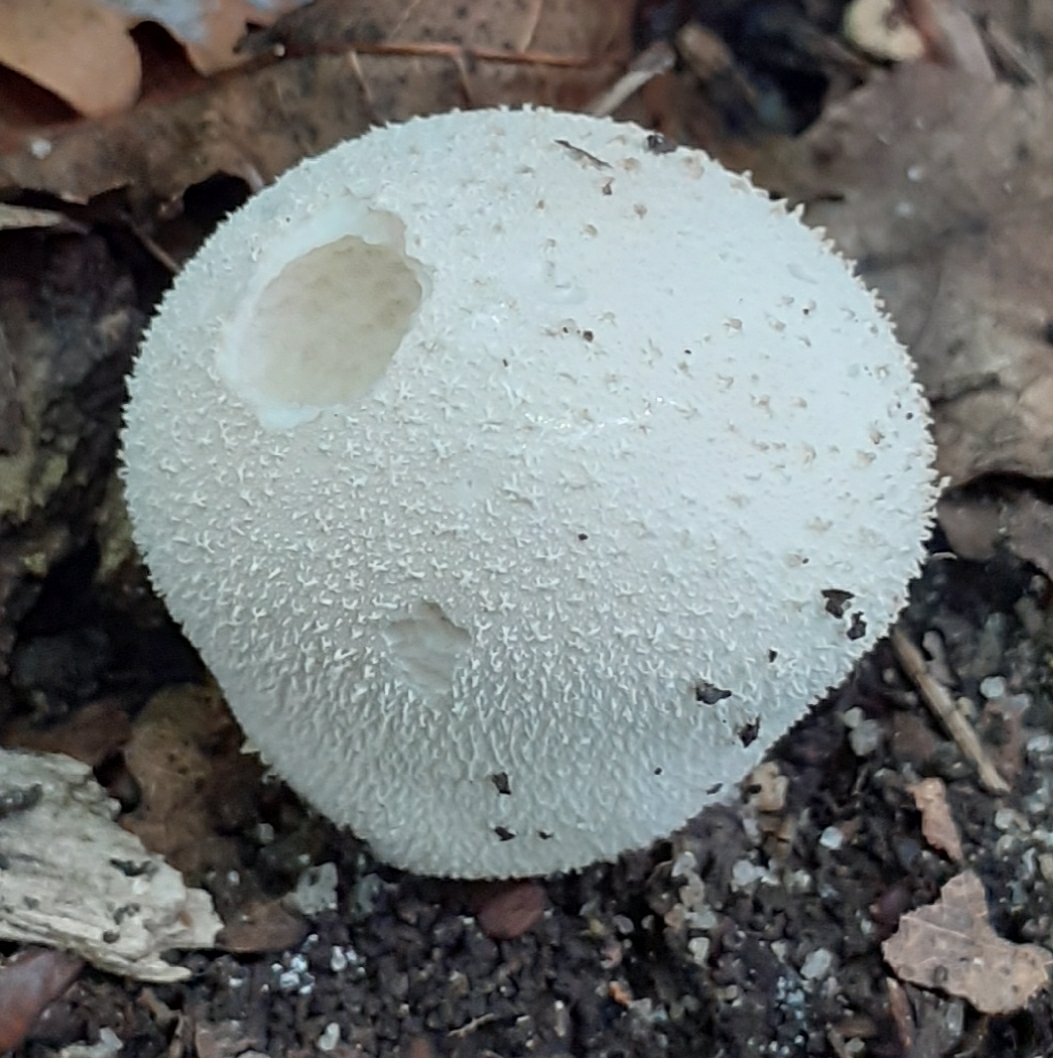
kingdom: Fungi
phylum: Basidiomycota
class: Agaricomycetes
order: Agaricales
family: Lycoperdaceae
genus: Lycoperdon
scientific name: Lycoperdon perlatum
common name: Common puffball
